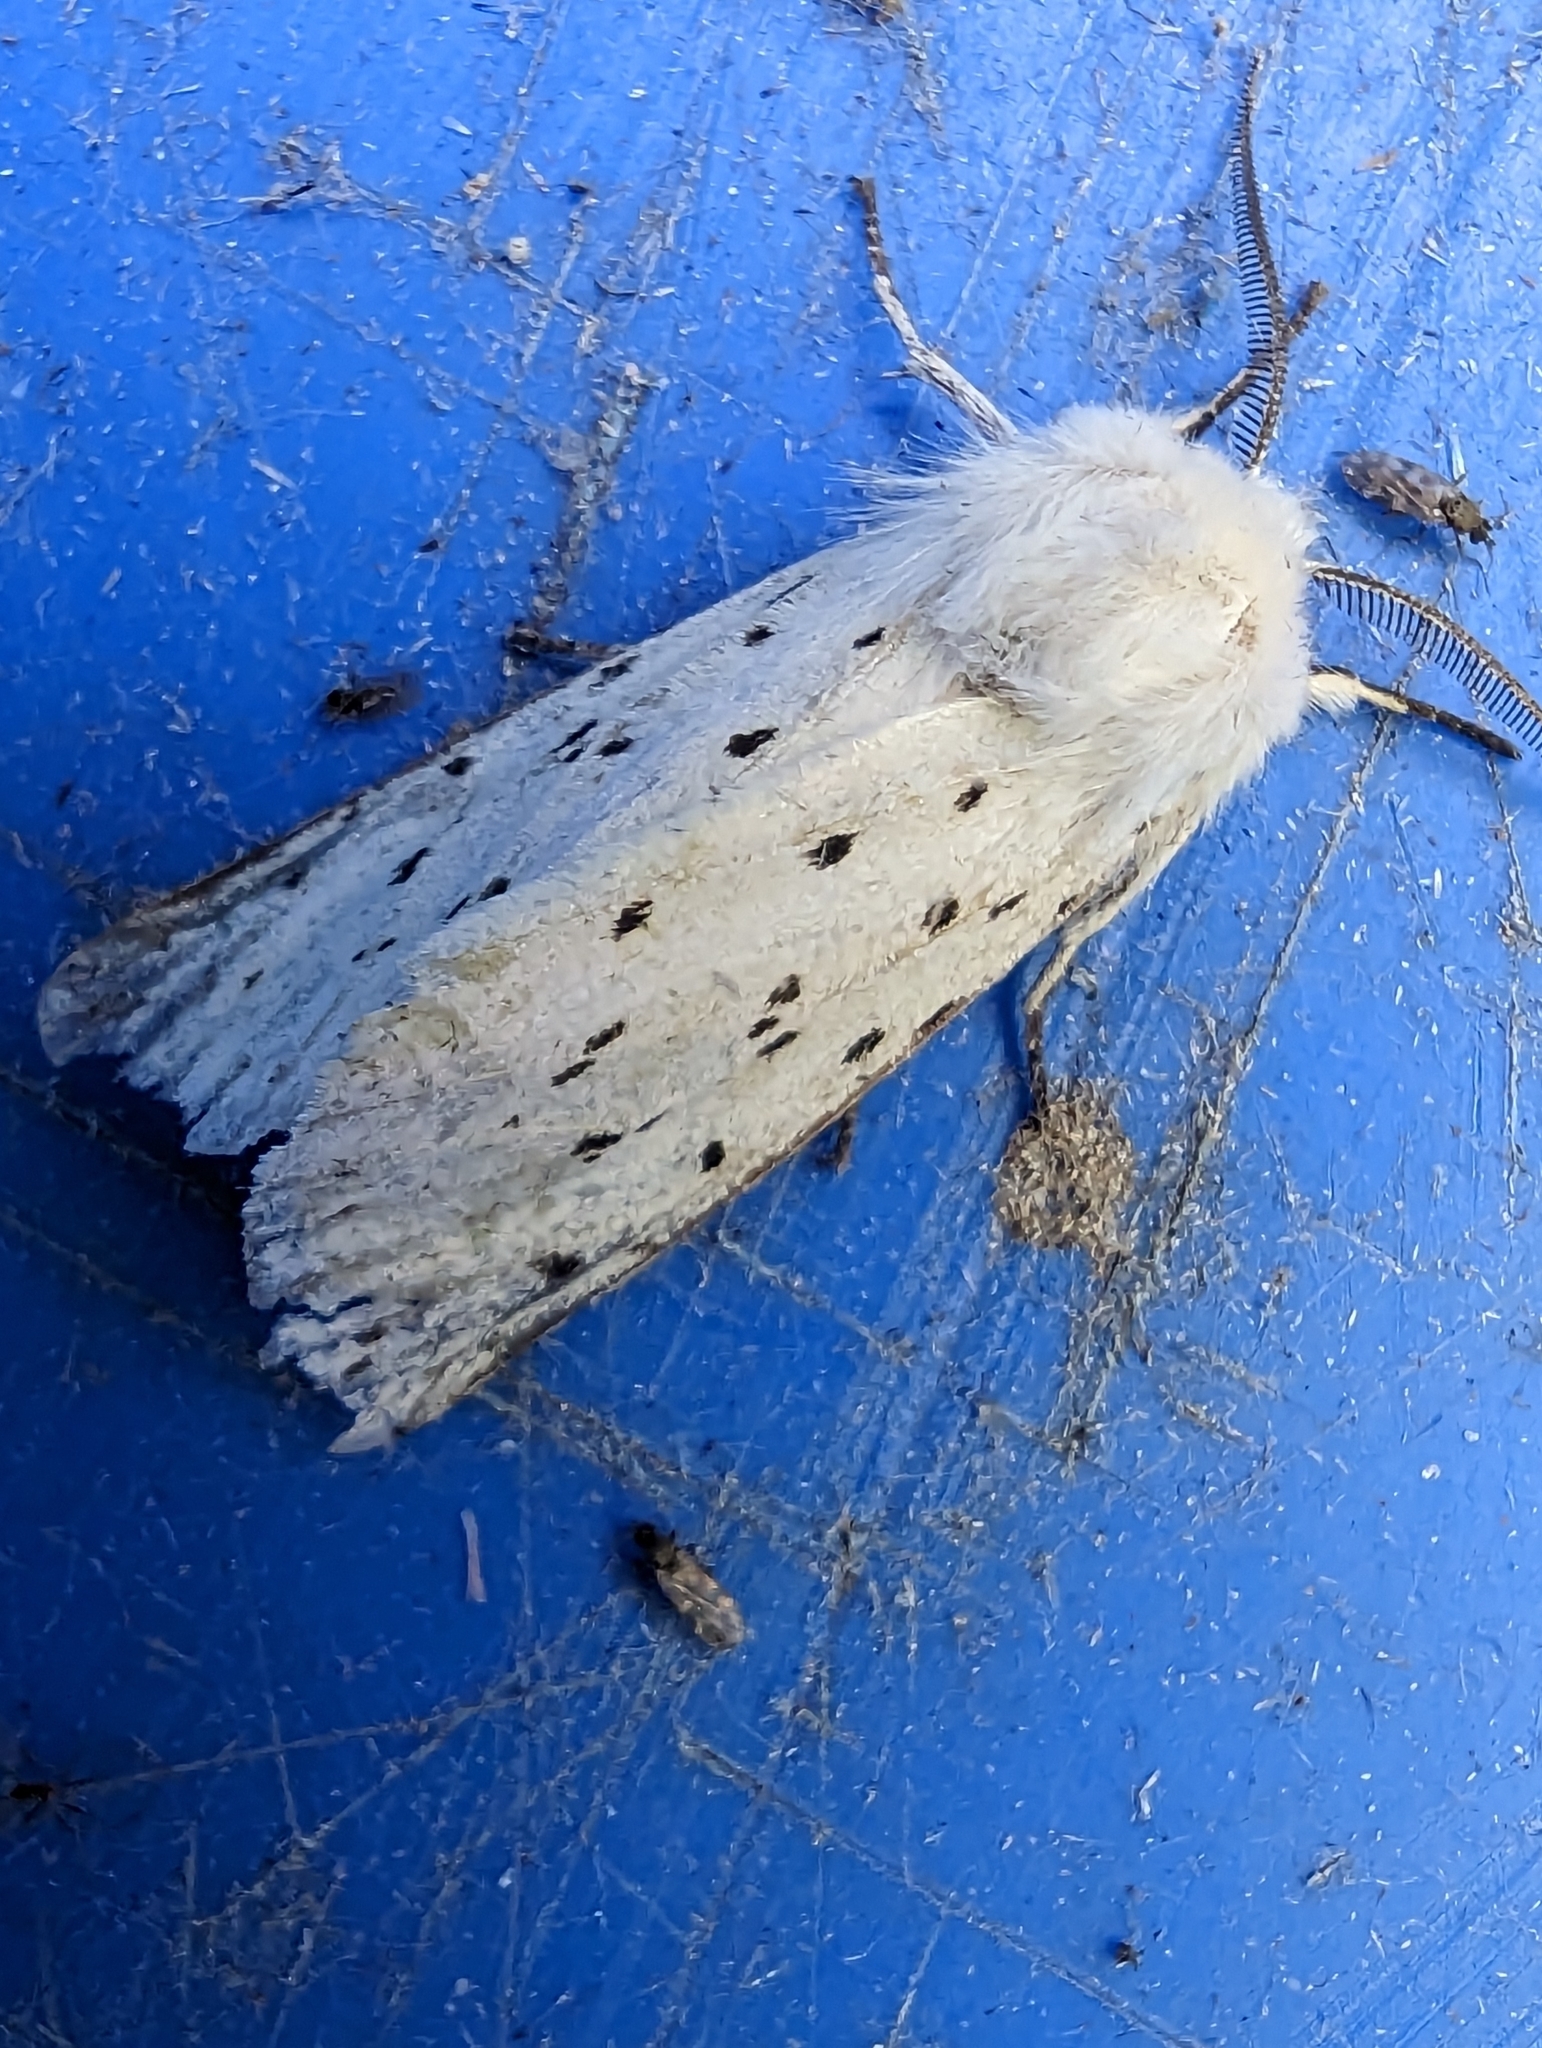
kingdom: Animalia
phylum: Arthropoda
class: Insecta
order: Lepidoptera
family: Erebidae
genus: Spilosoma
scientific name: Spilosoma lubricipeda
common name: White ermine
